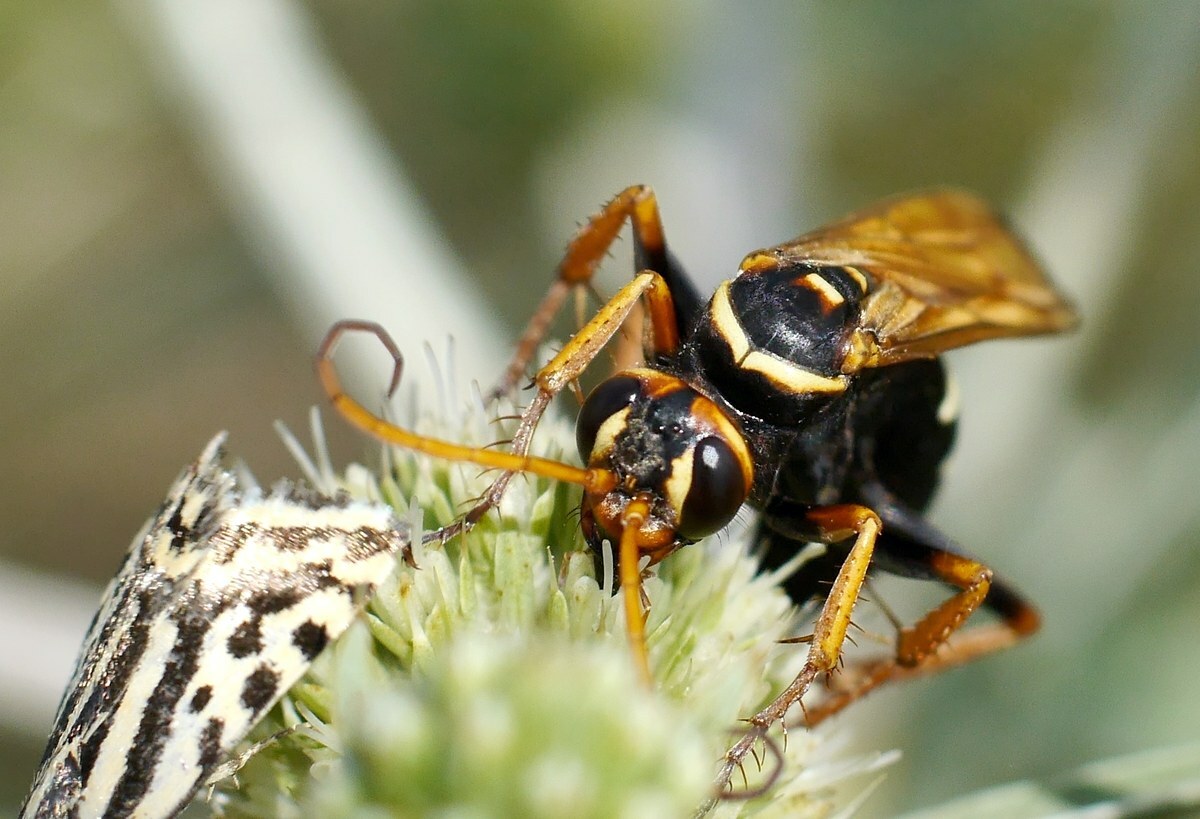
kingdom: Animalia
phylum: Arthropoda
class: Insecta
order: Lepidoptera
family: Noctuidae
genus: Acontia
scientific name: Acontia trabealis
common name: Spotted sulphur
